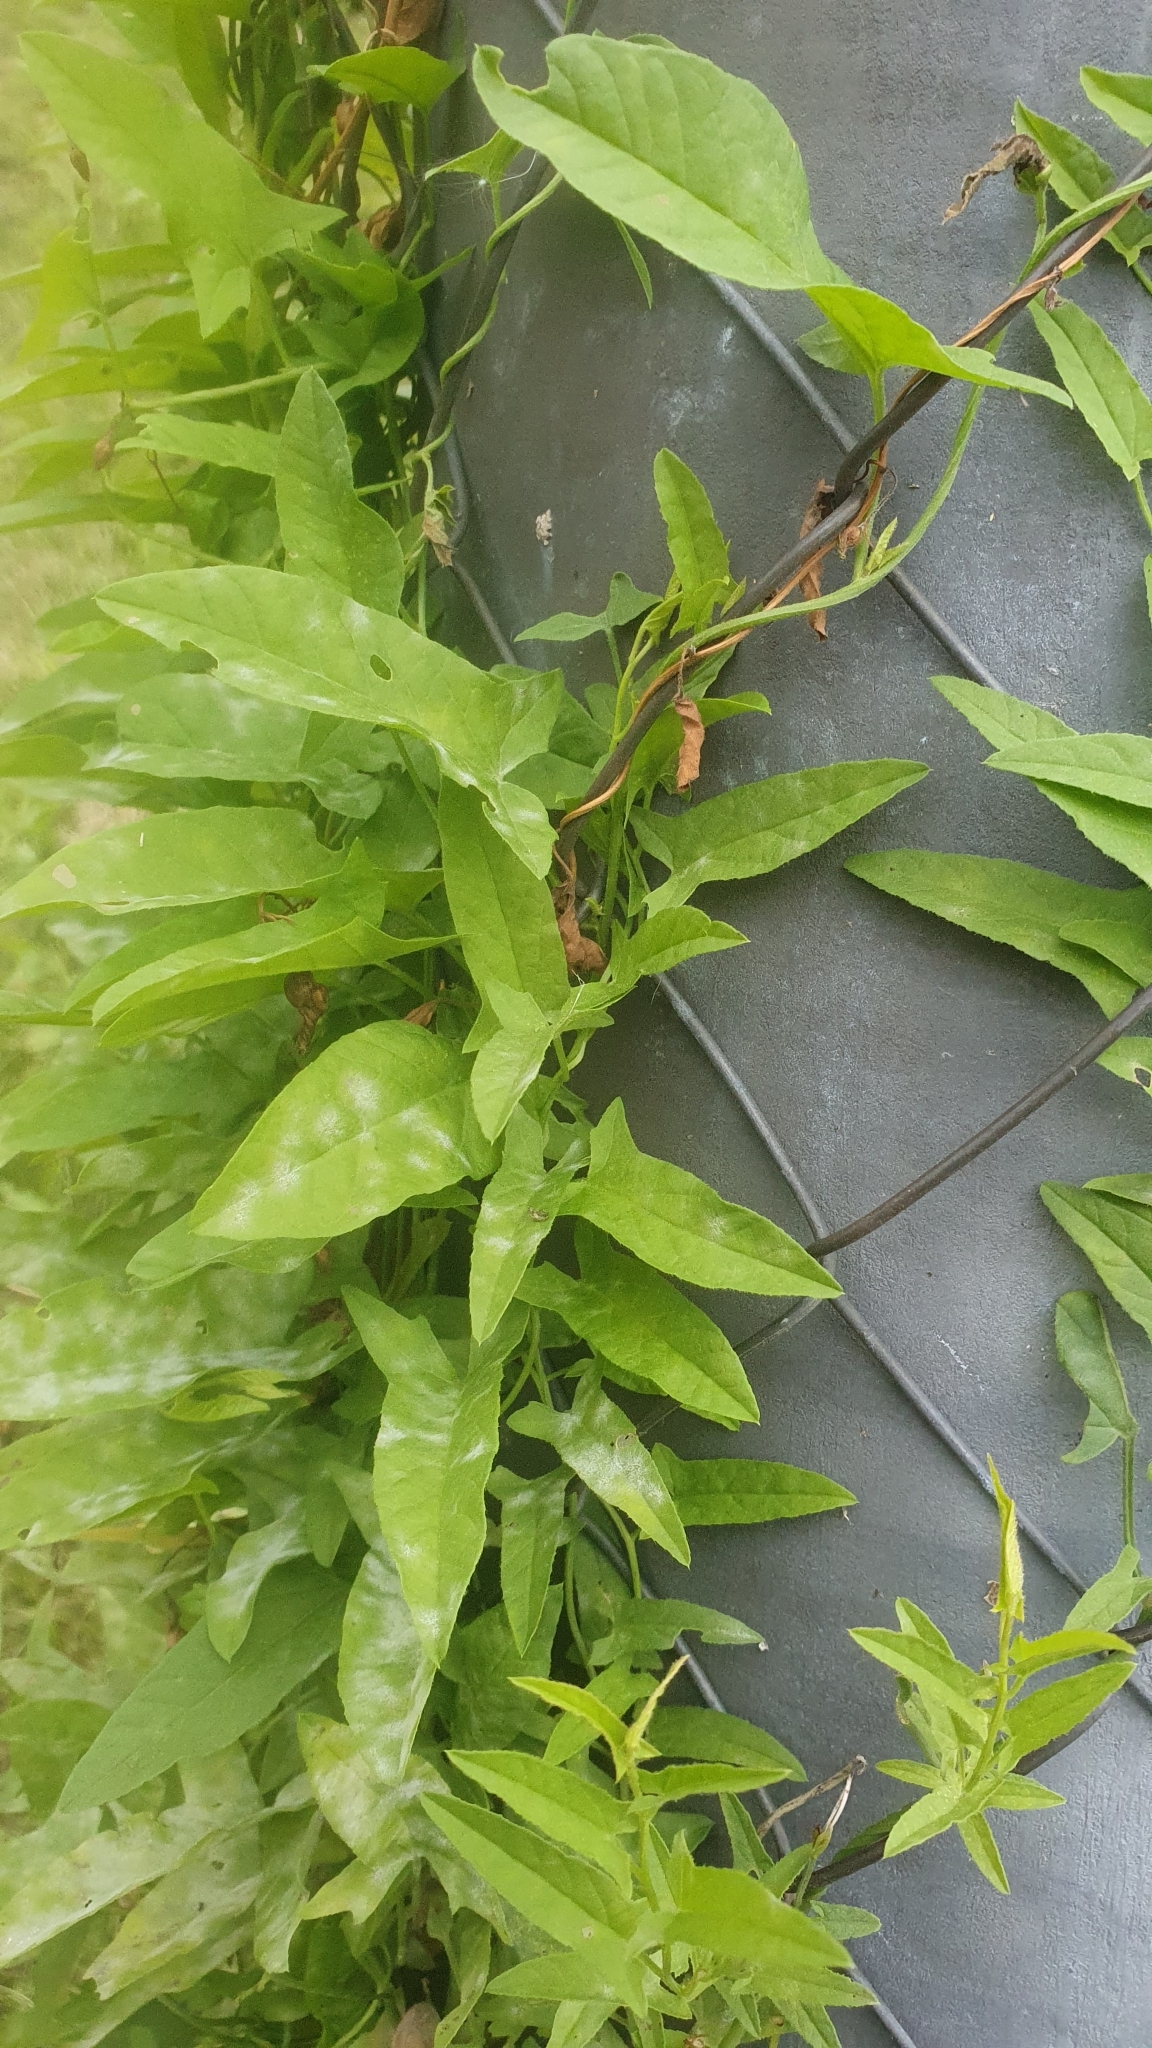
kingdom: Plantae
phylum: Tracheophyta
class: Magnoliopsida
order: Solanales
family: Convolvulaceae
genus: Convolvulus
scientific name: Convolvulus arvensis
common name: Field bindweed
